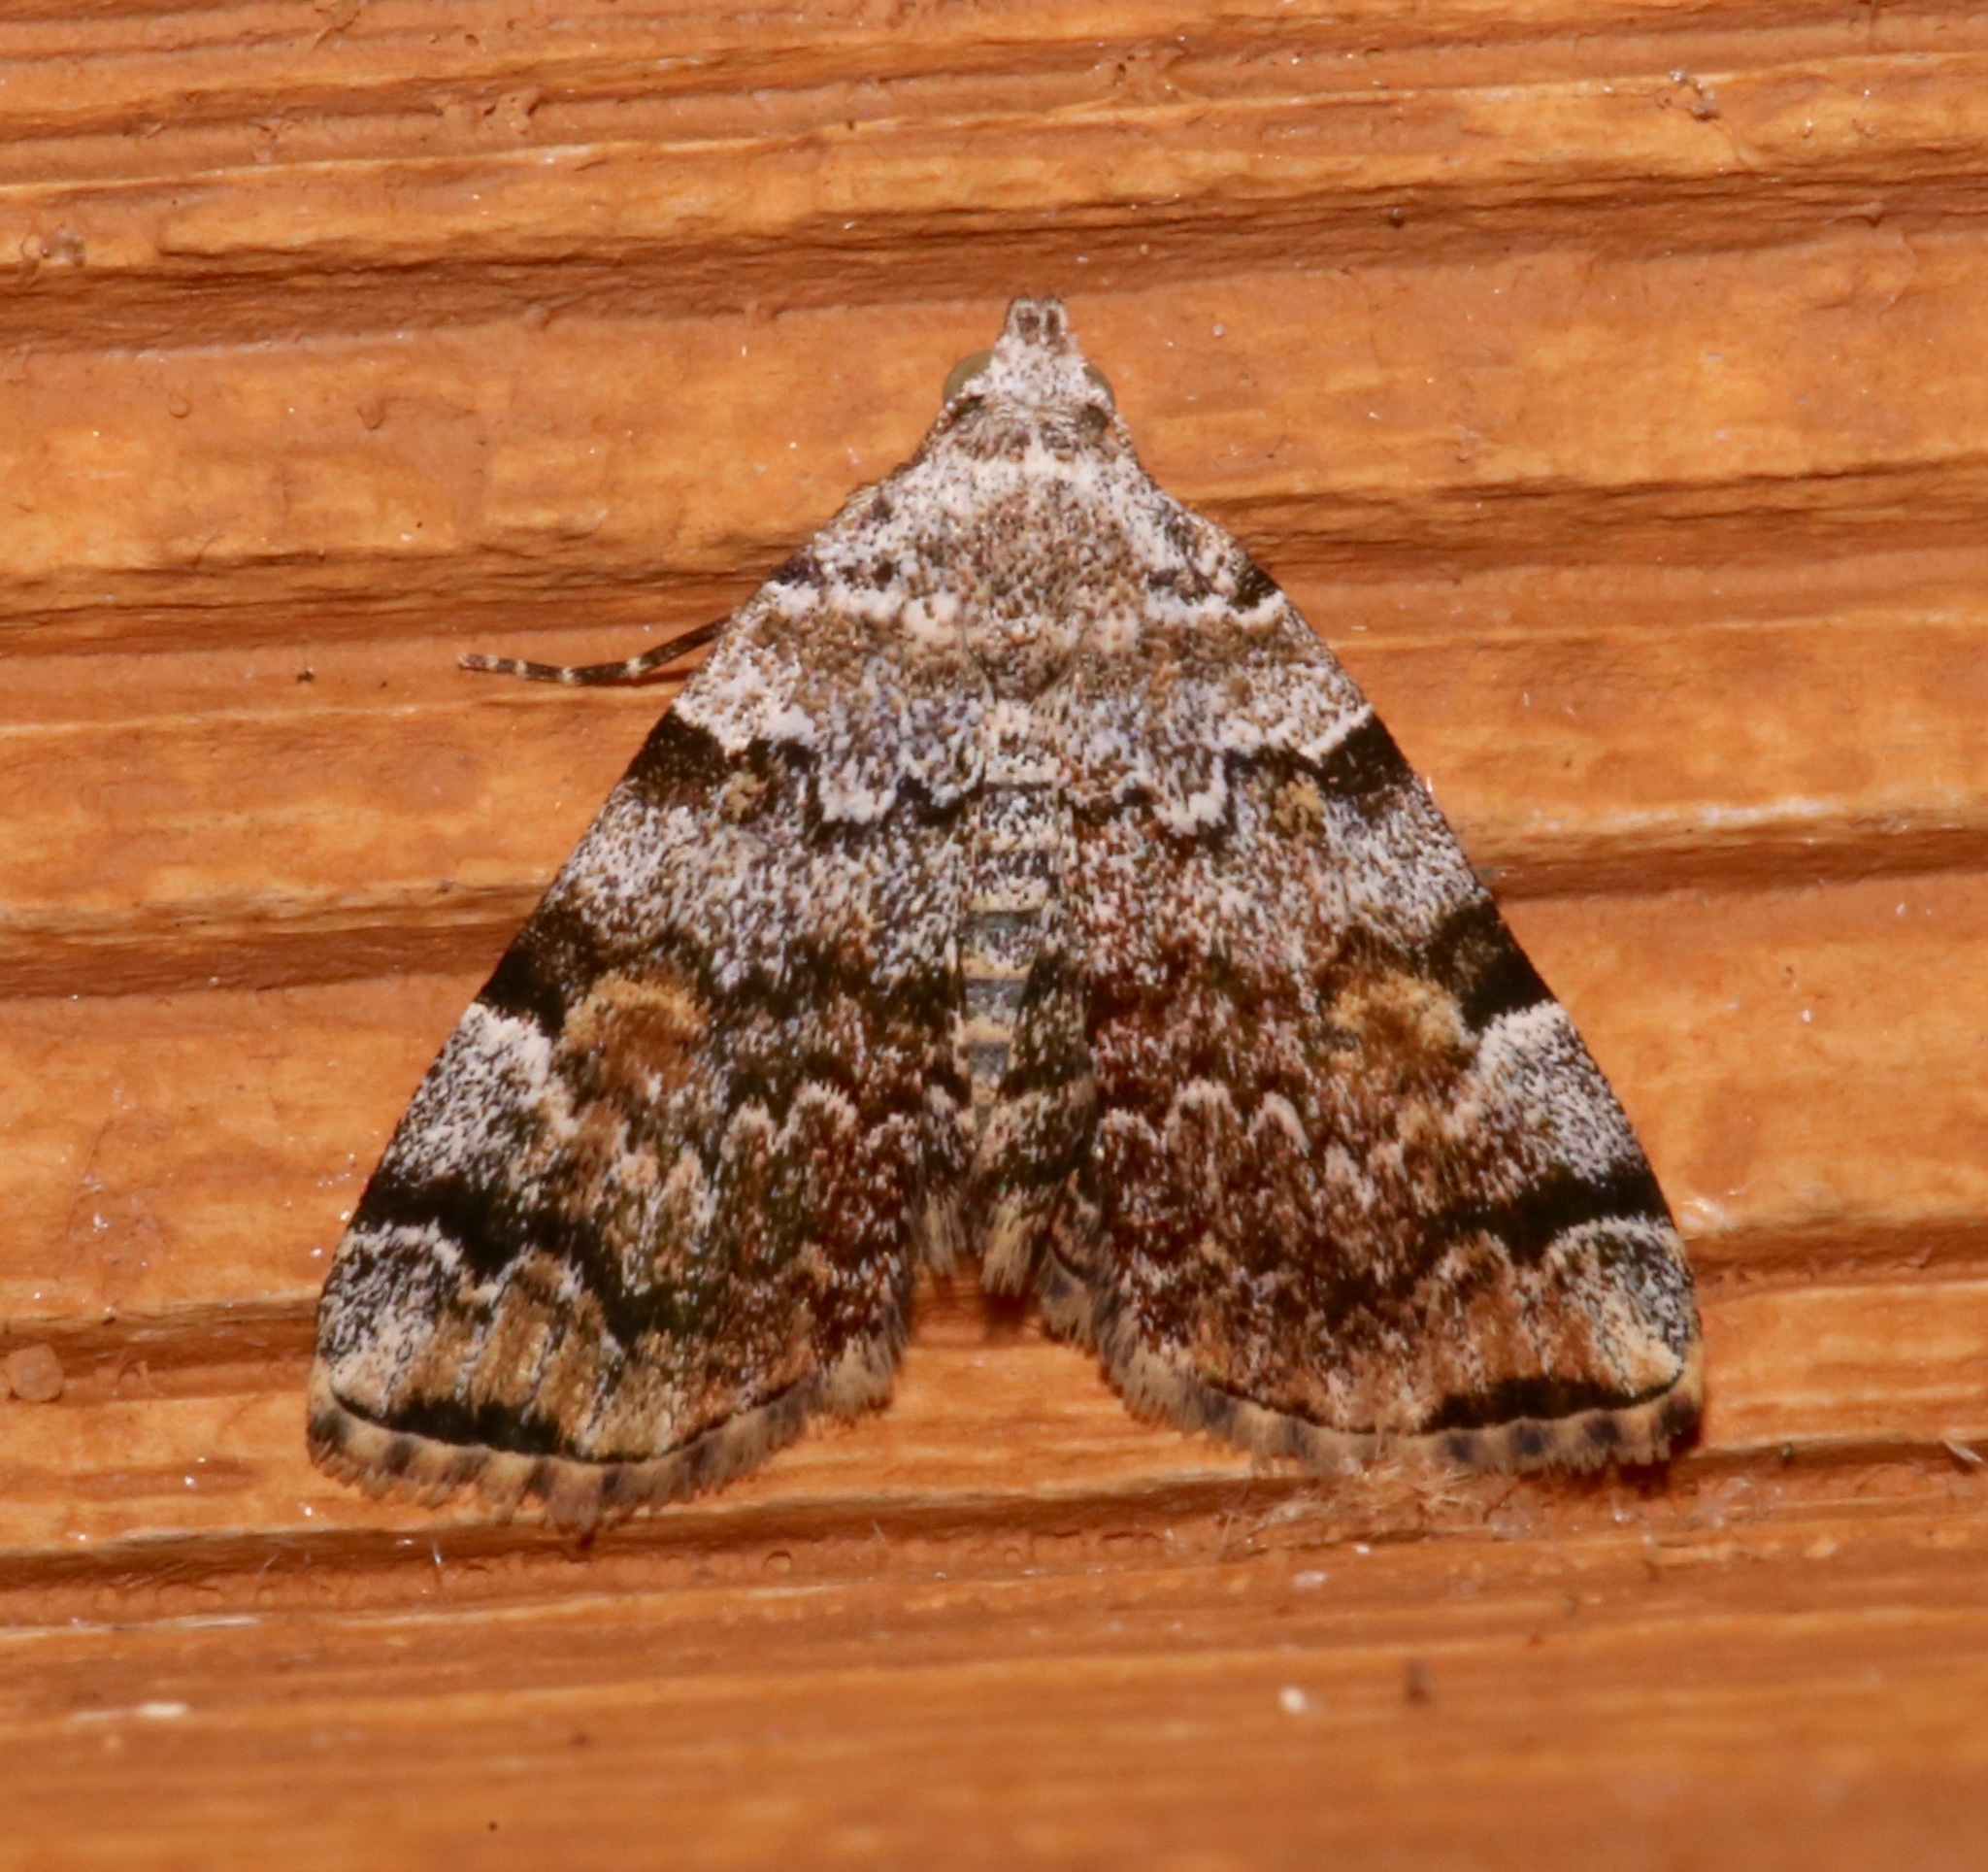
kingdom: Animalia
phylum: Arthropoda
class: Insecta
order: Lepidoptera
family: Erebidae
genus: Idia
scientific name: Idia americalis
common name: American idia moth
